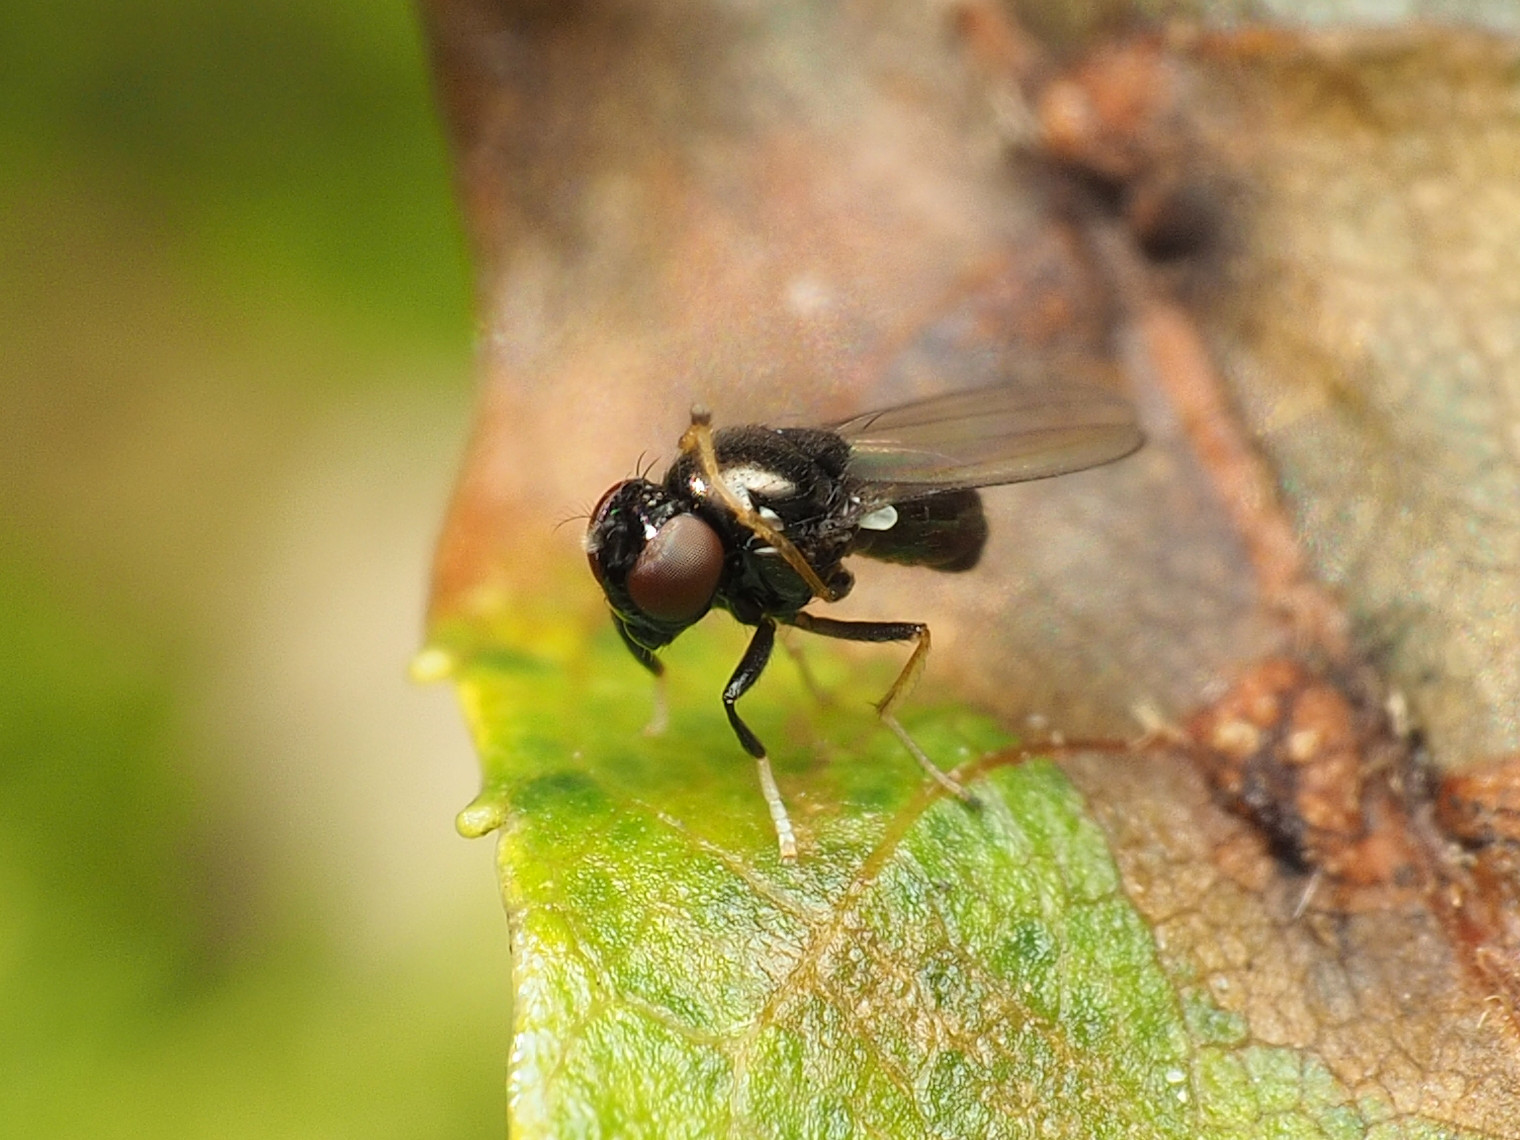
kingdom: Animalia
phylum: Arthropoda
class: Insecta
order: Diptera
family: Ephydridae
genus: Athyroglossa
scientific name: Athyroglossa glaphyropus
